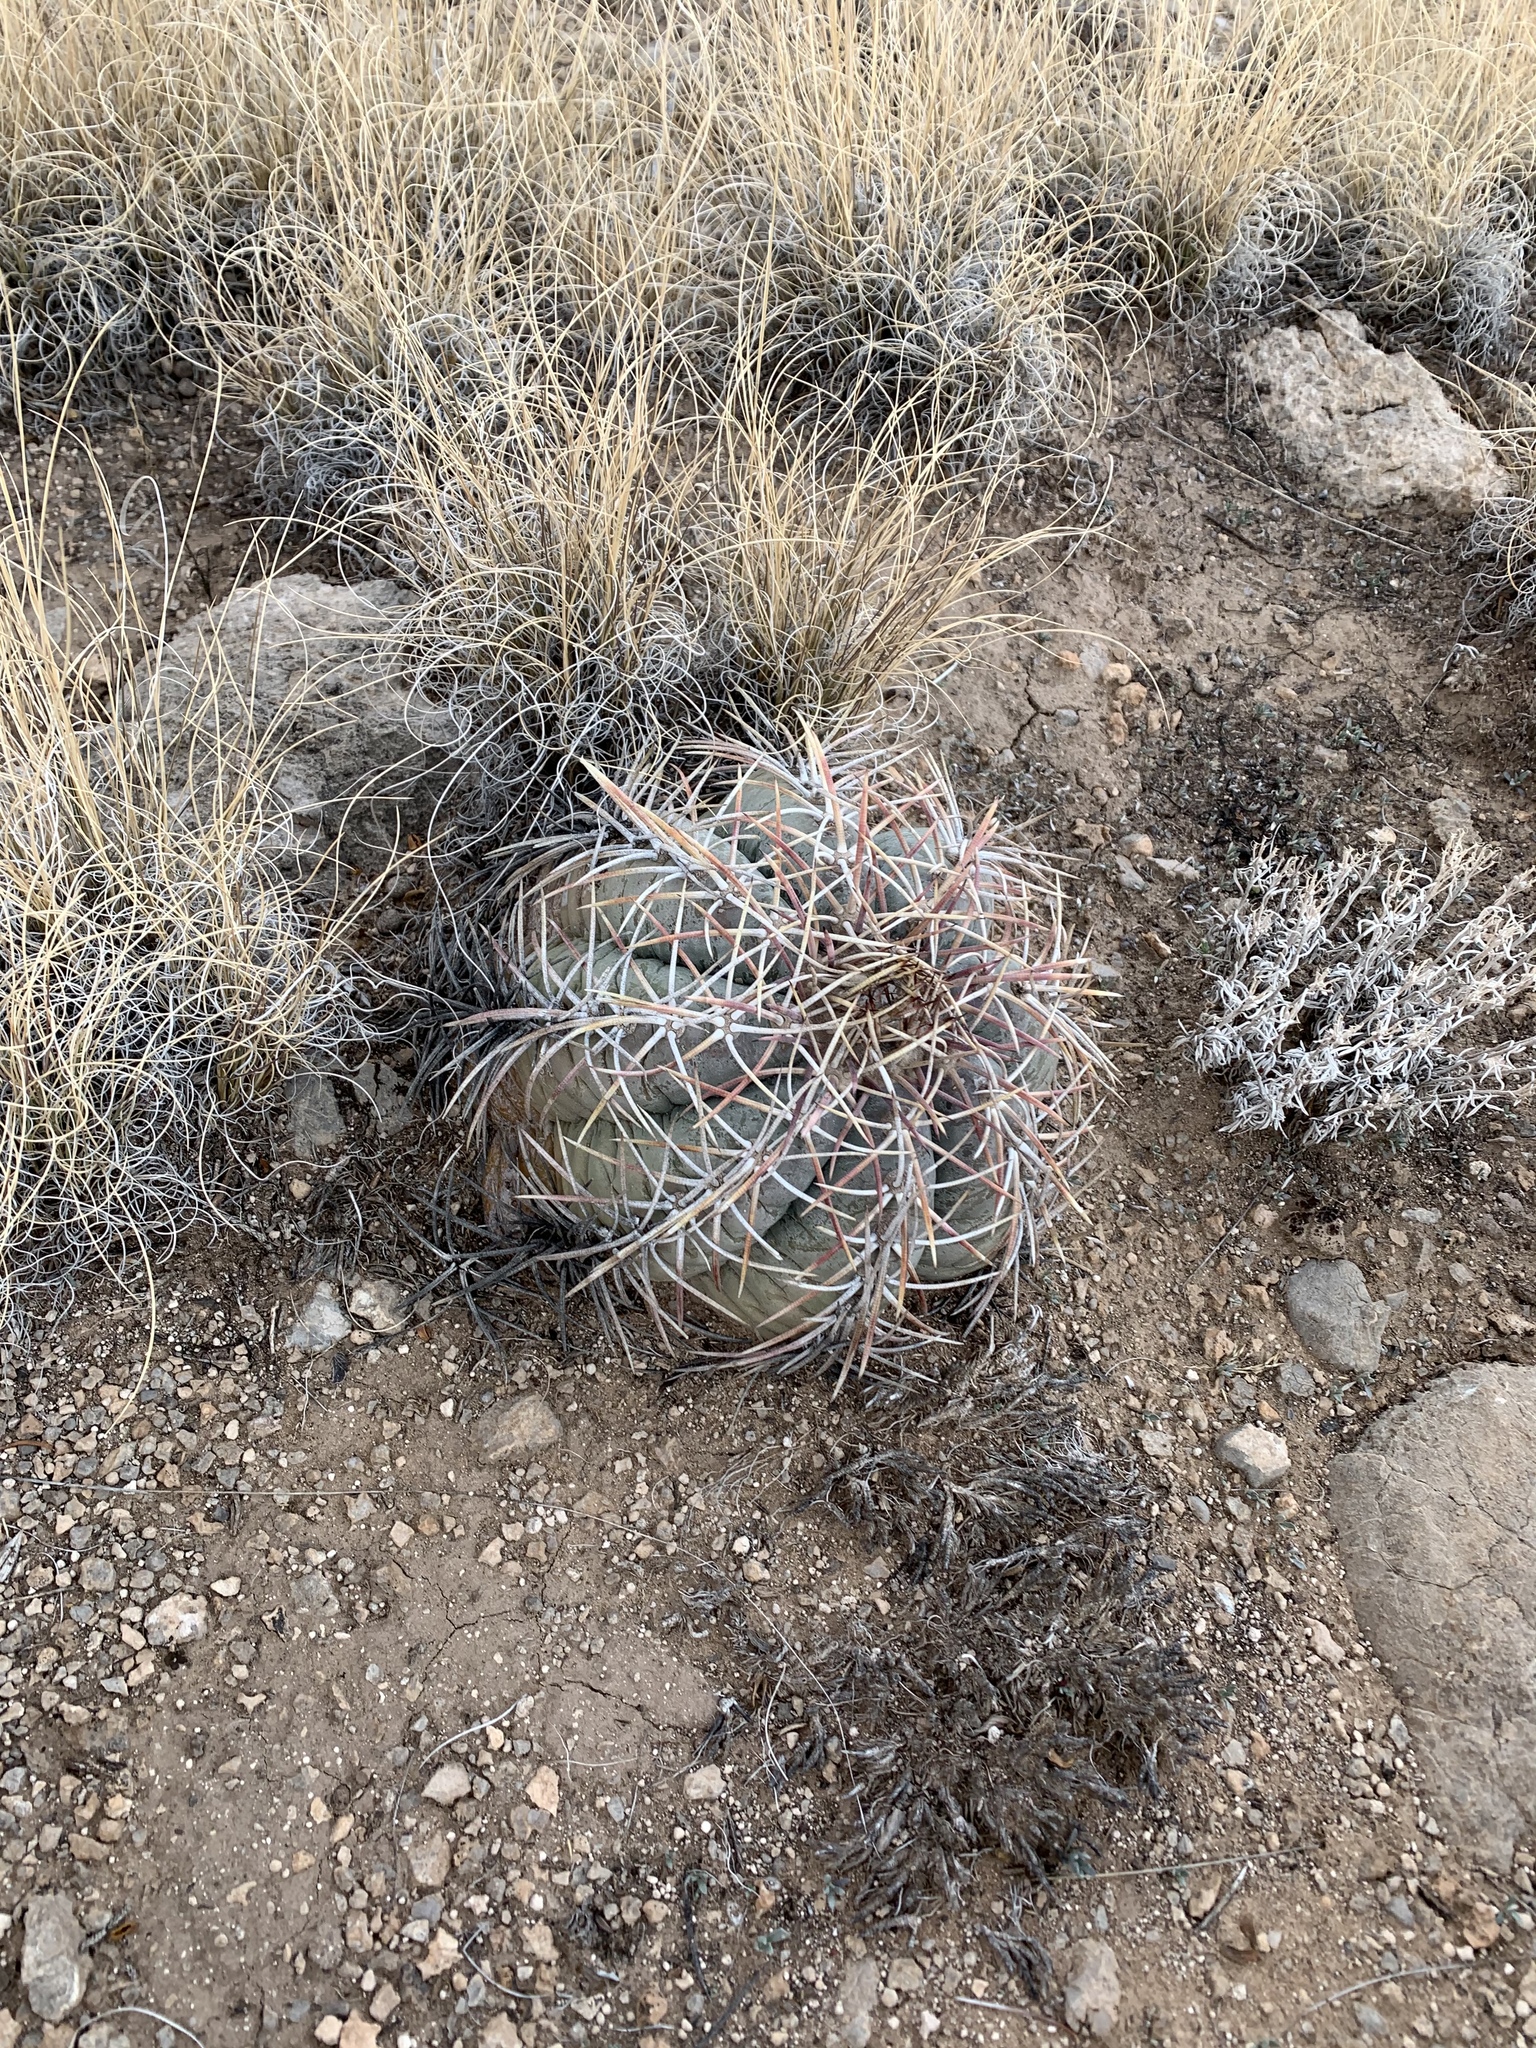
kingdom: Plantae
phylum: Tracheophyta
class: Magnoliopsida
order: Caryophyllales
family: Cactaceae
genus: Echinocactus
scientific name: Echinocactus horizonthalonius
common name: Devilshead
